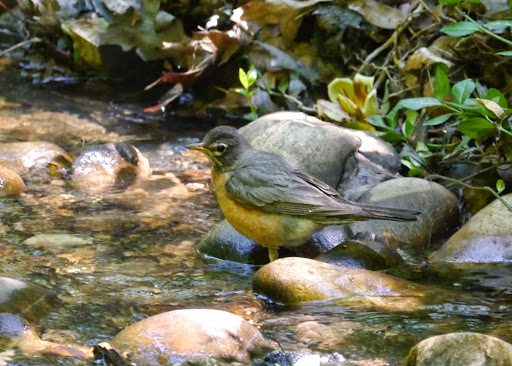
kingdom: Animalia
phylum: Chordata
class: Aves
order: Passeriformes
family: Turdidae
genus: Turdus
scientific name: Turdus migratorius
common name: American robin
